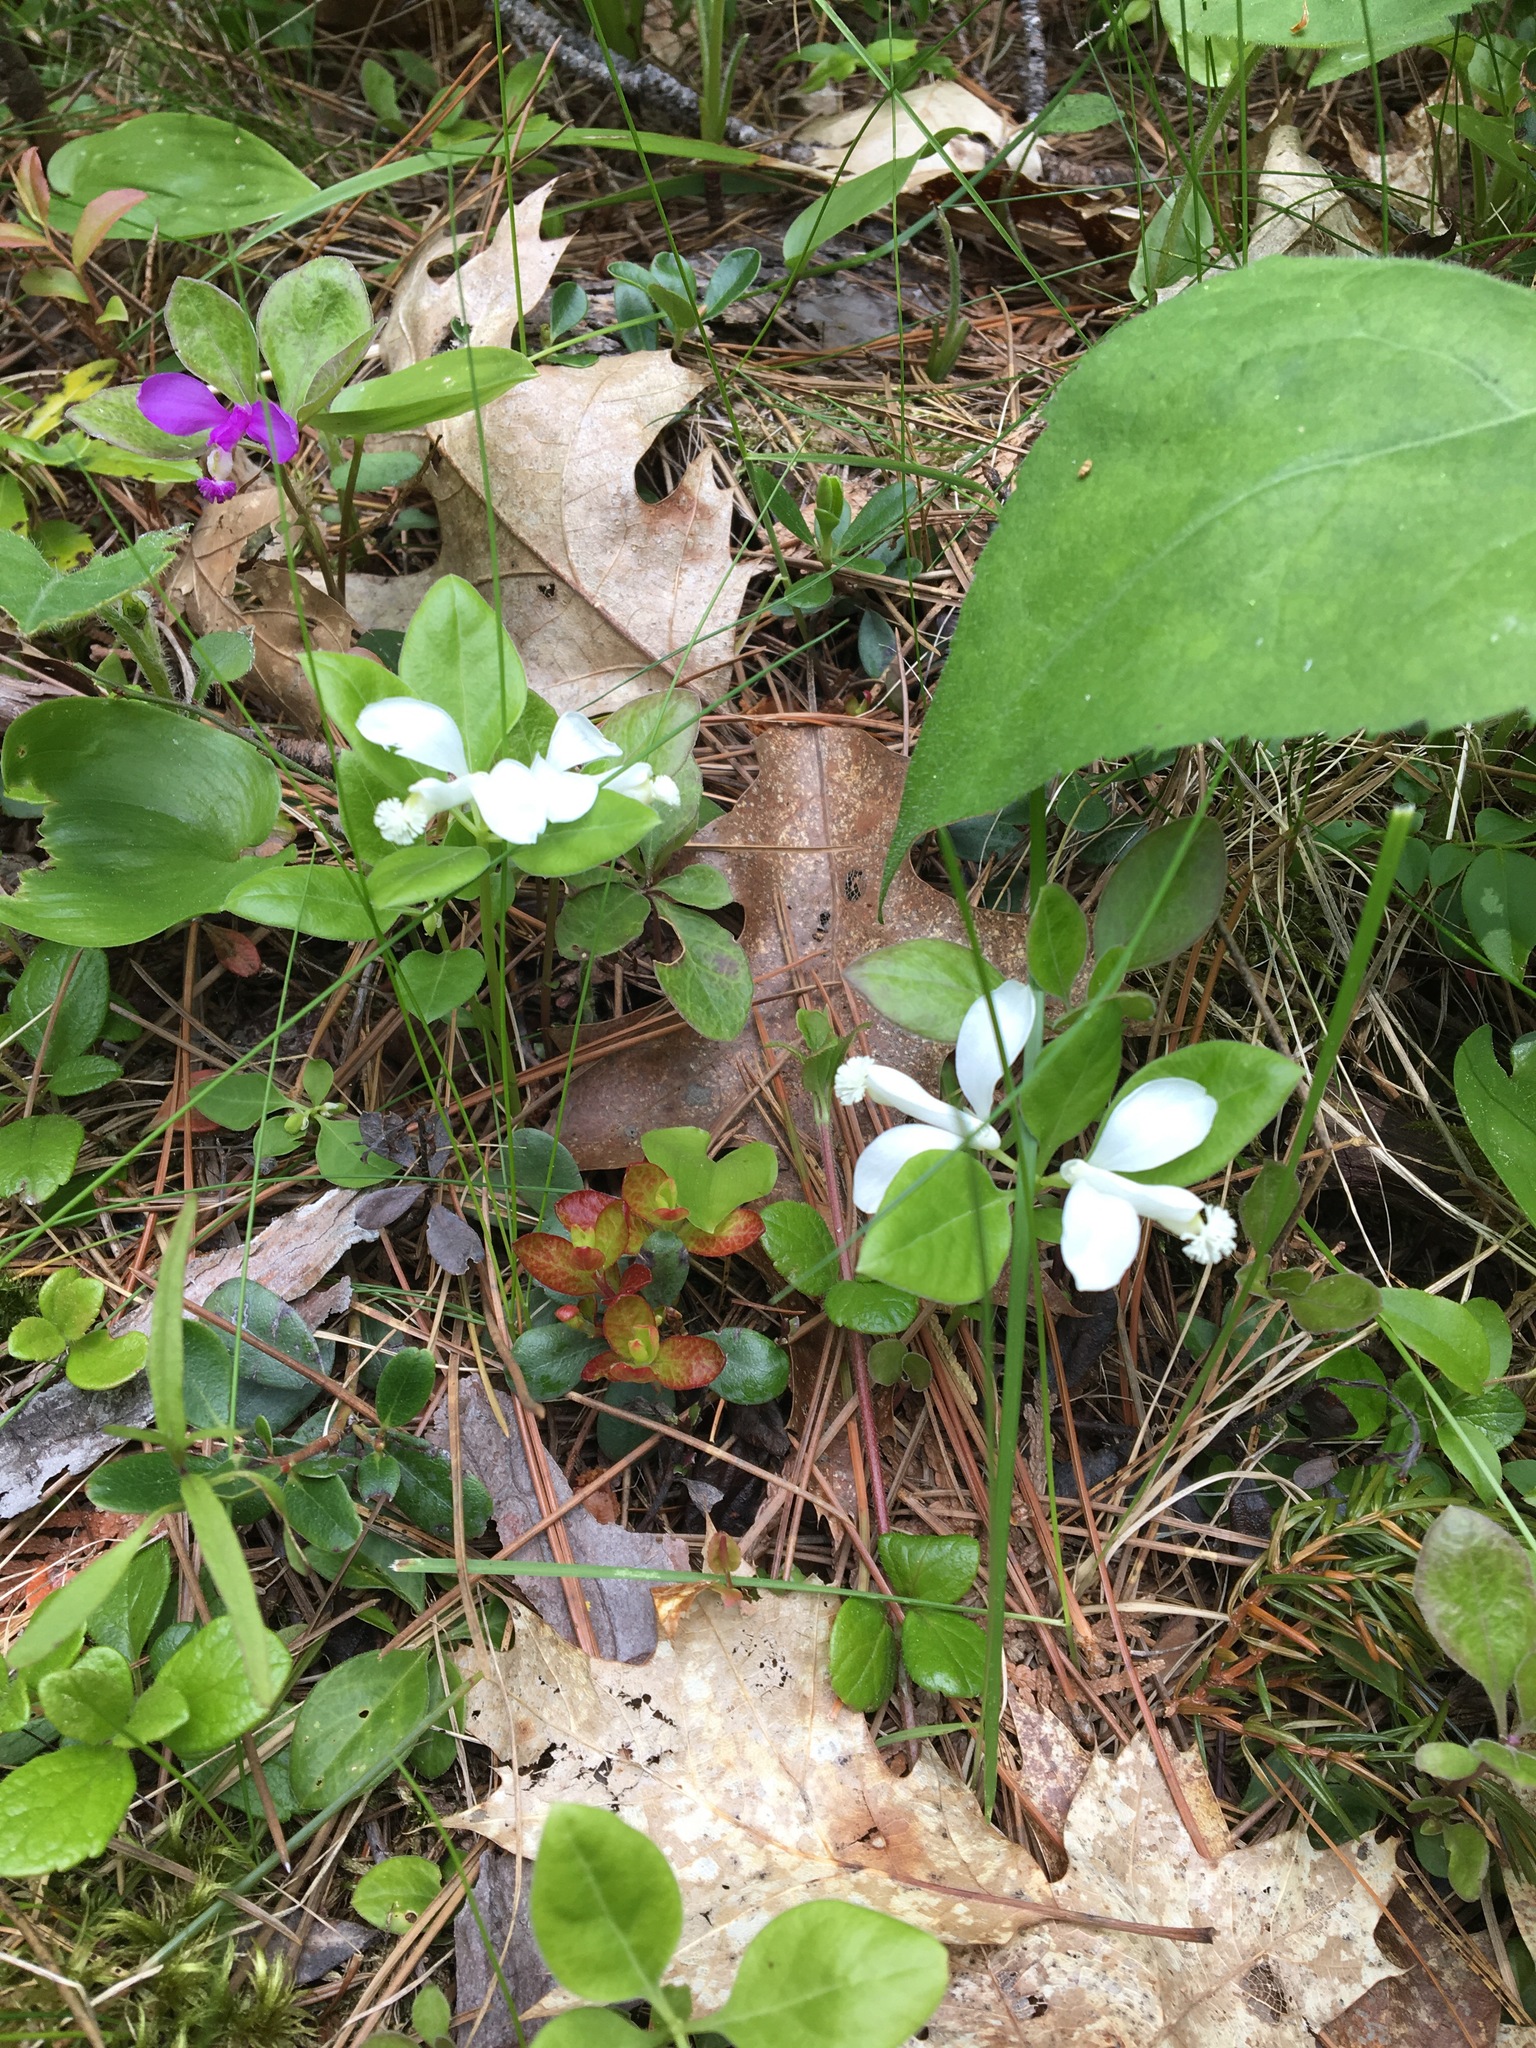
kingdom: Plantae
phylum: Tracheophyta
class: Magnoliopsida
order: Fabales
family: Polygalaceae
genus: Polygaloides
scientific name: Polygaloides paucifolia
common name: Bird-on-the-wing
